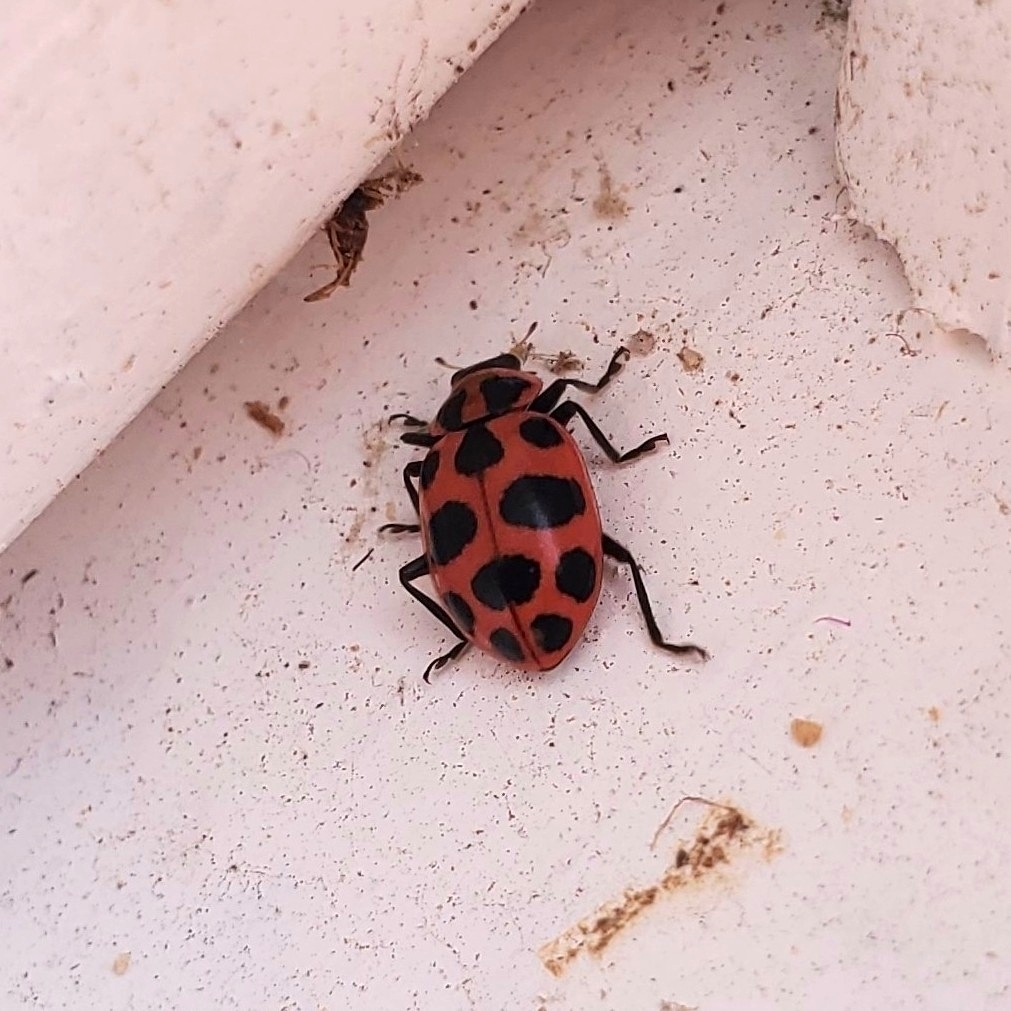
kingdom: Animalia
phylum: Arthropoda
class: Insecta
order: Coleoptera
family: Coccinellidae
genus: Coleomegilla
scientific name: Coleomegilla maculata
